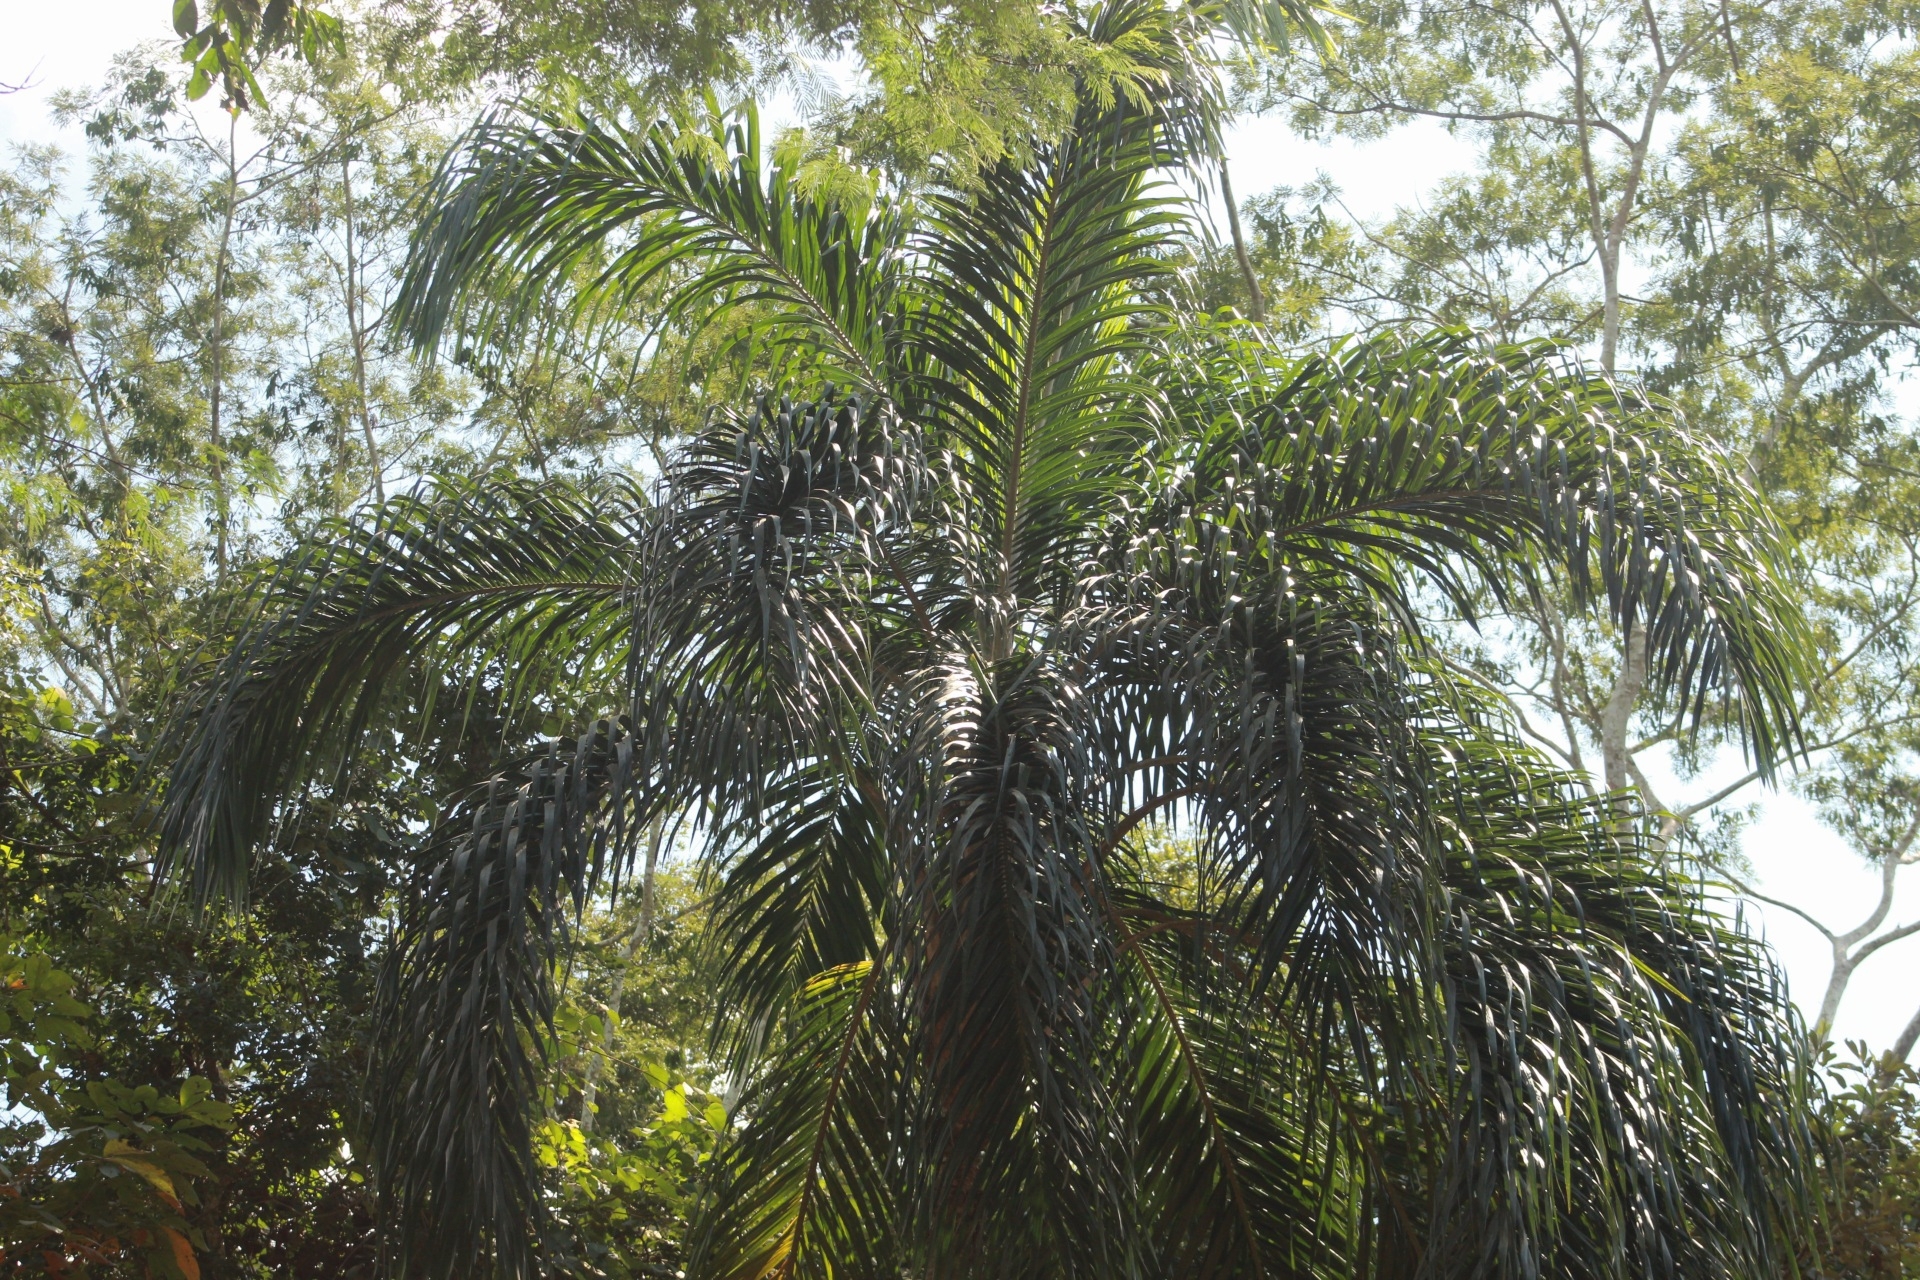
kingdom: Plantae
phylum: Tracheophyta
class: Liliopsida
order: Arecales
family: Arecaceae
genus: Bactris
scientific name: Bactris gasipaes
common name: Peach palm
